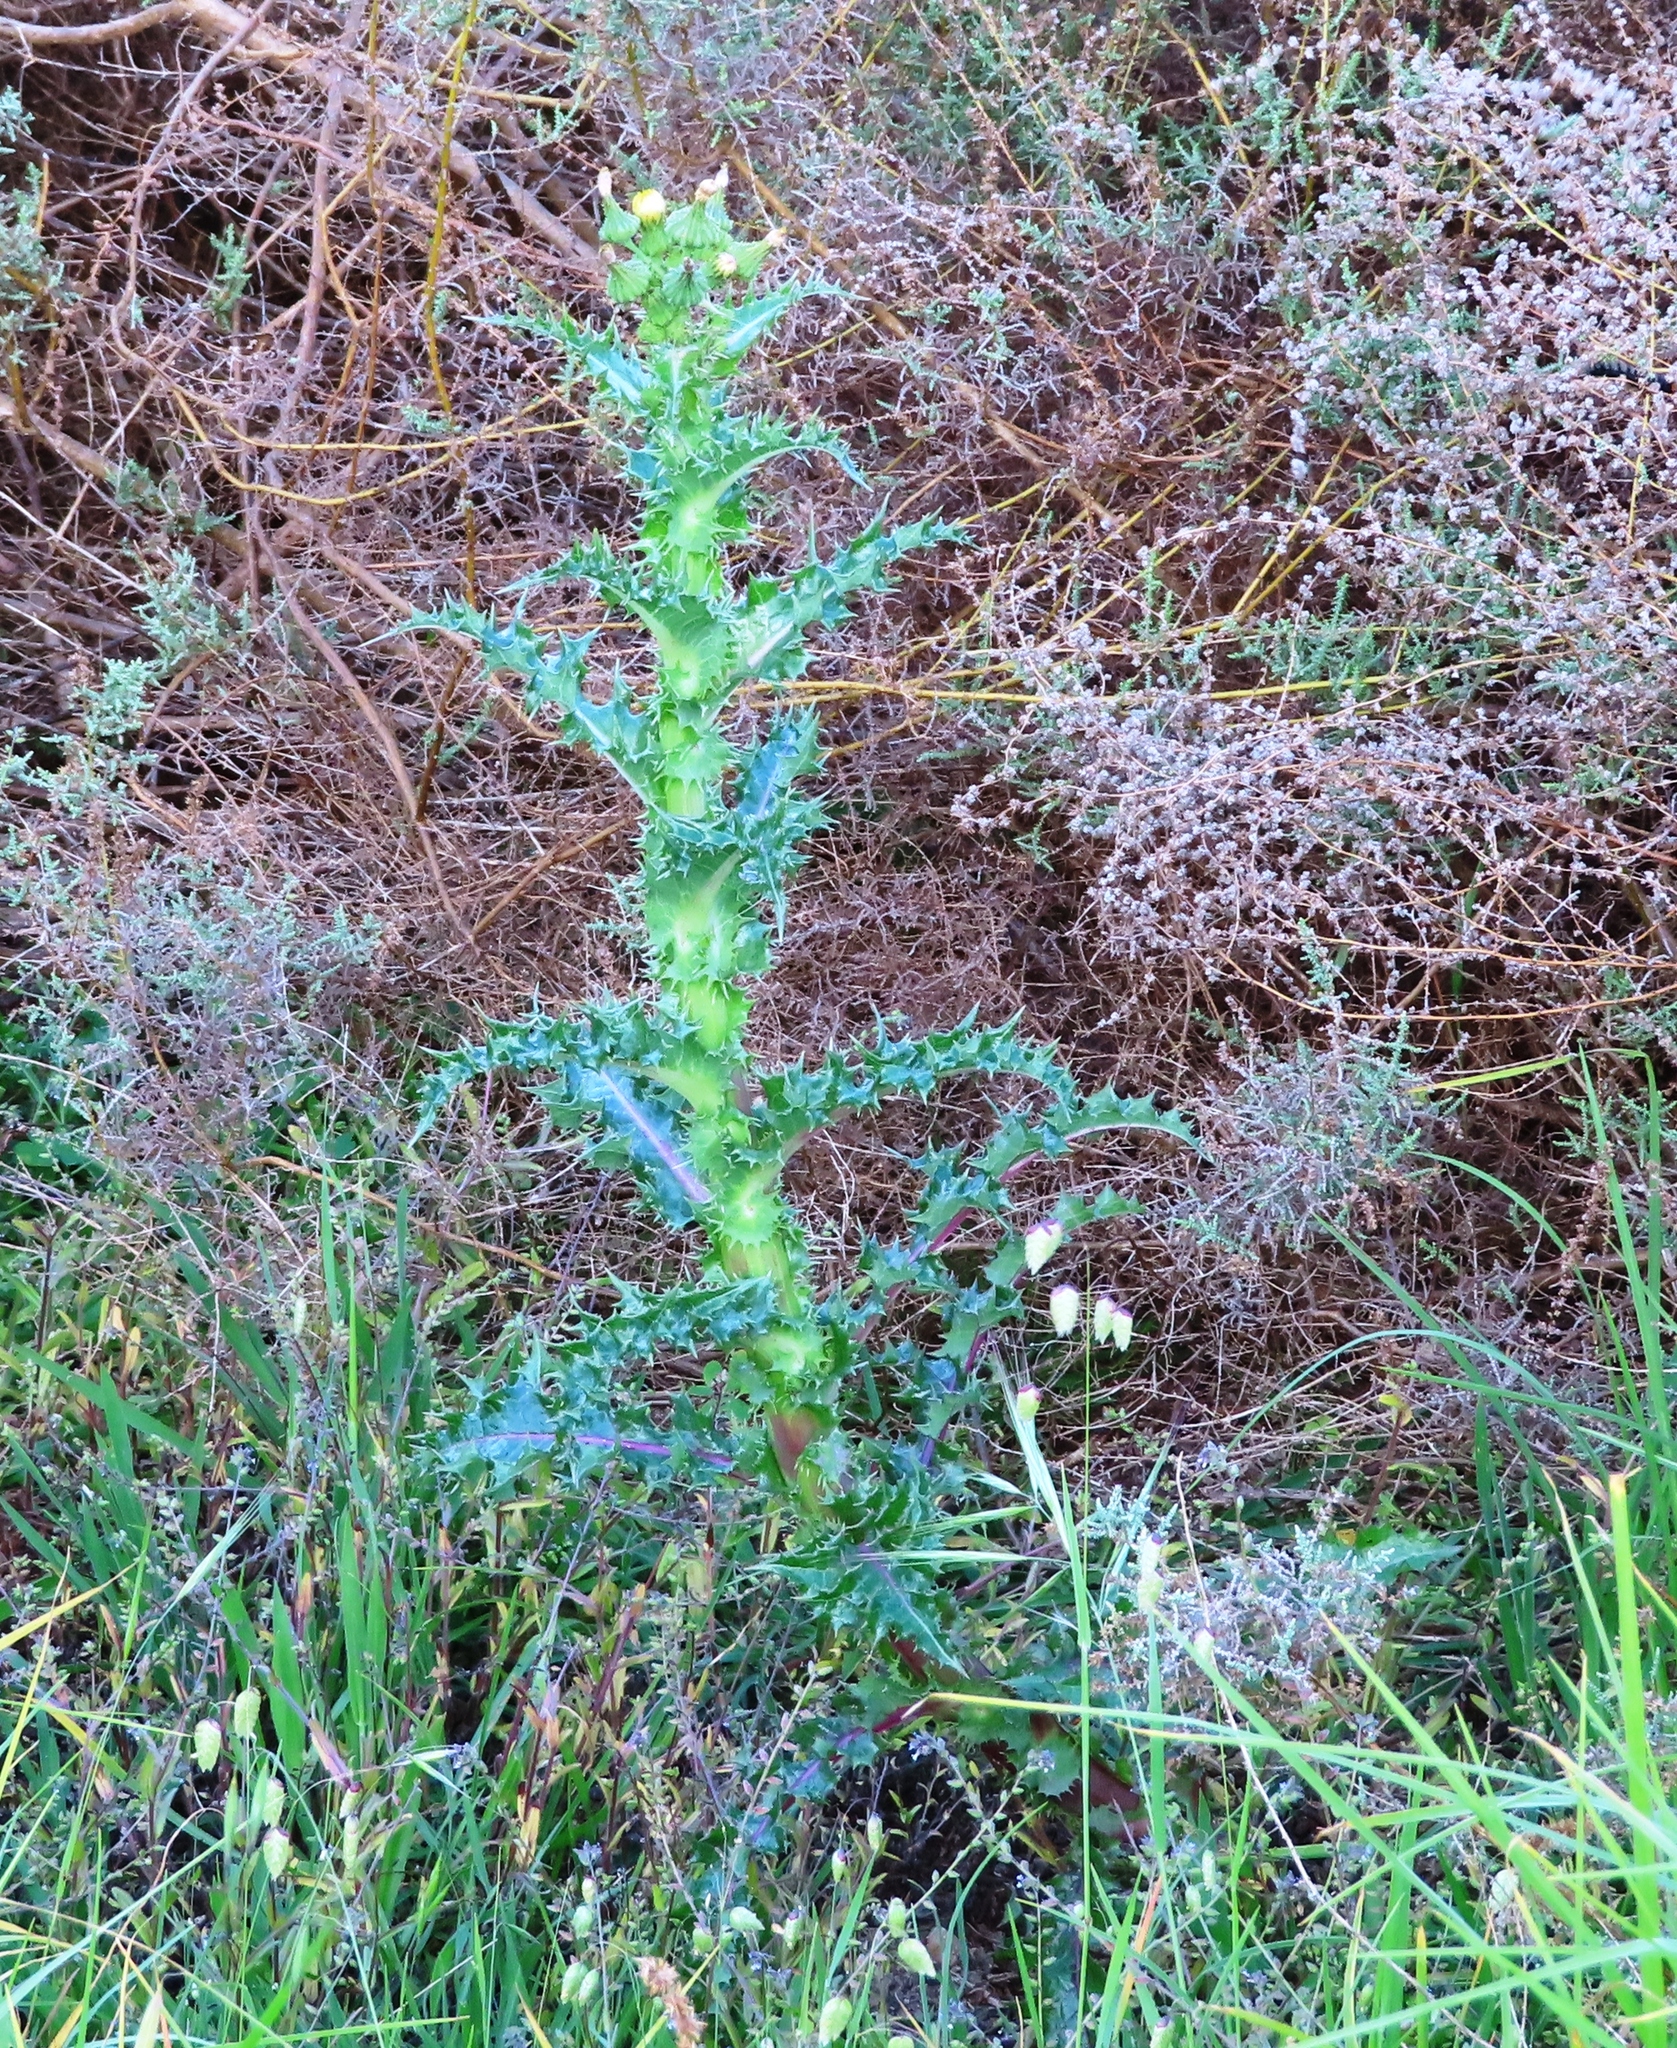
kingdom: Plantae
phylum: Tracheophyta
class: Magnoliopsida
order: Asterales
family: Asteraceae
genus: Sonchus
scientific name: Sonchus asper
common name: Prickly sow-thistle
